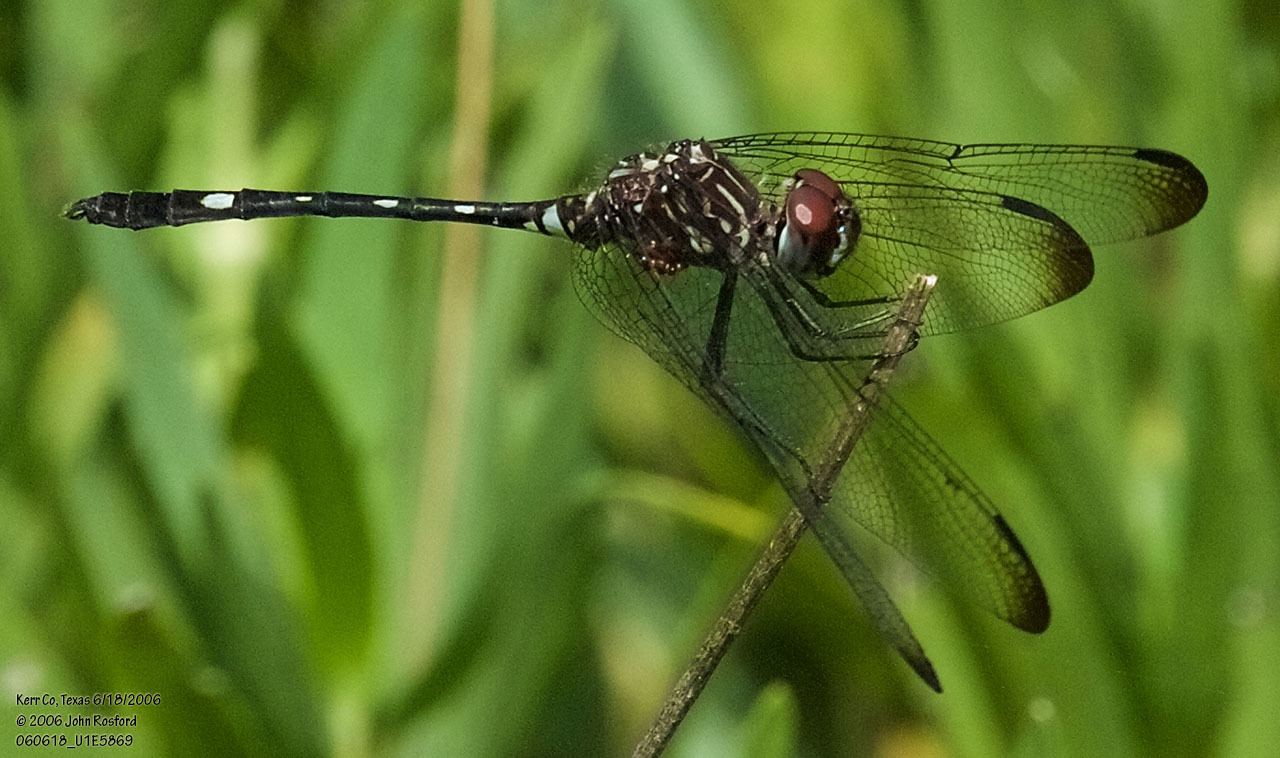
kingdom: Animalia
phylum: Arthropoda
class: Insecta
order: Odonata
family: Libellulidae
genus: Dythemis
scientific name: Dythemis velox
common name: Swift setwing
